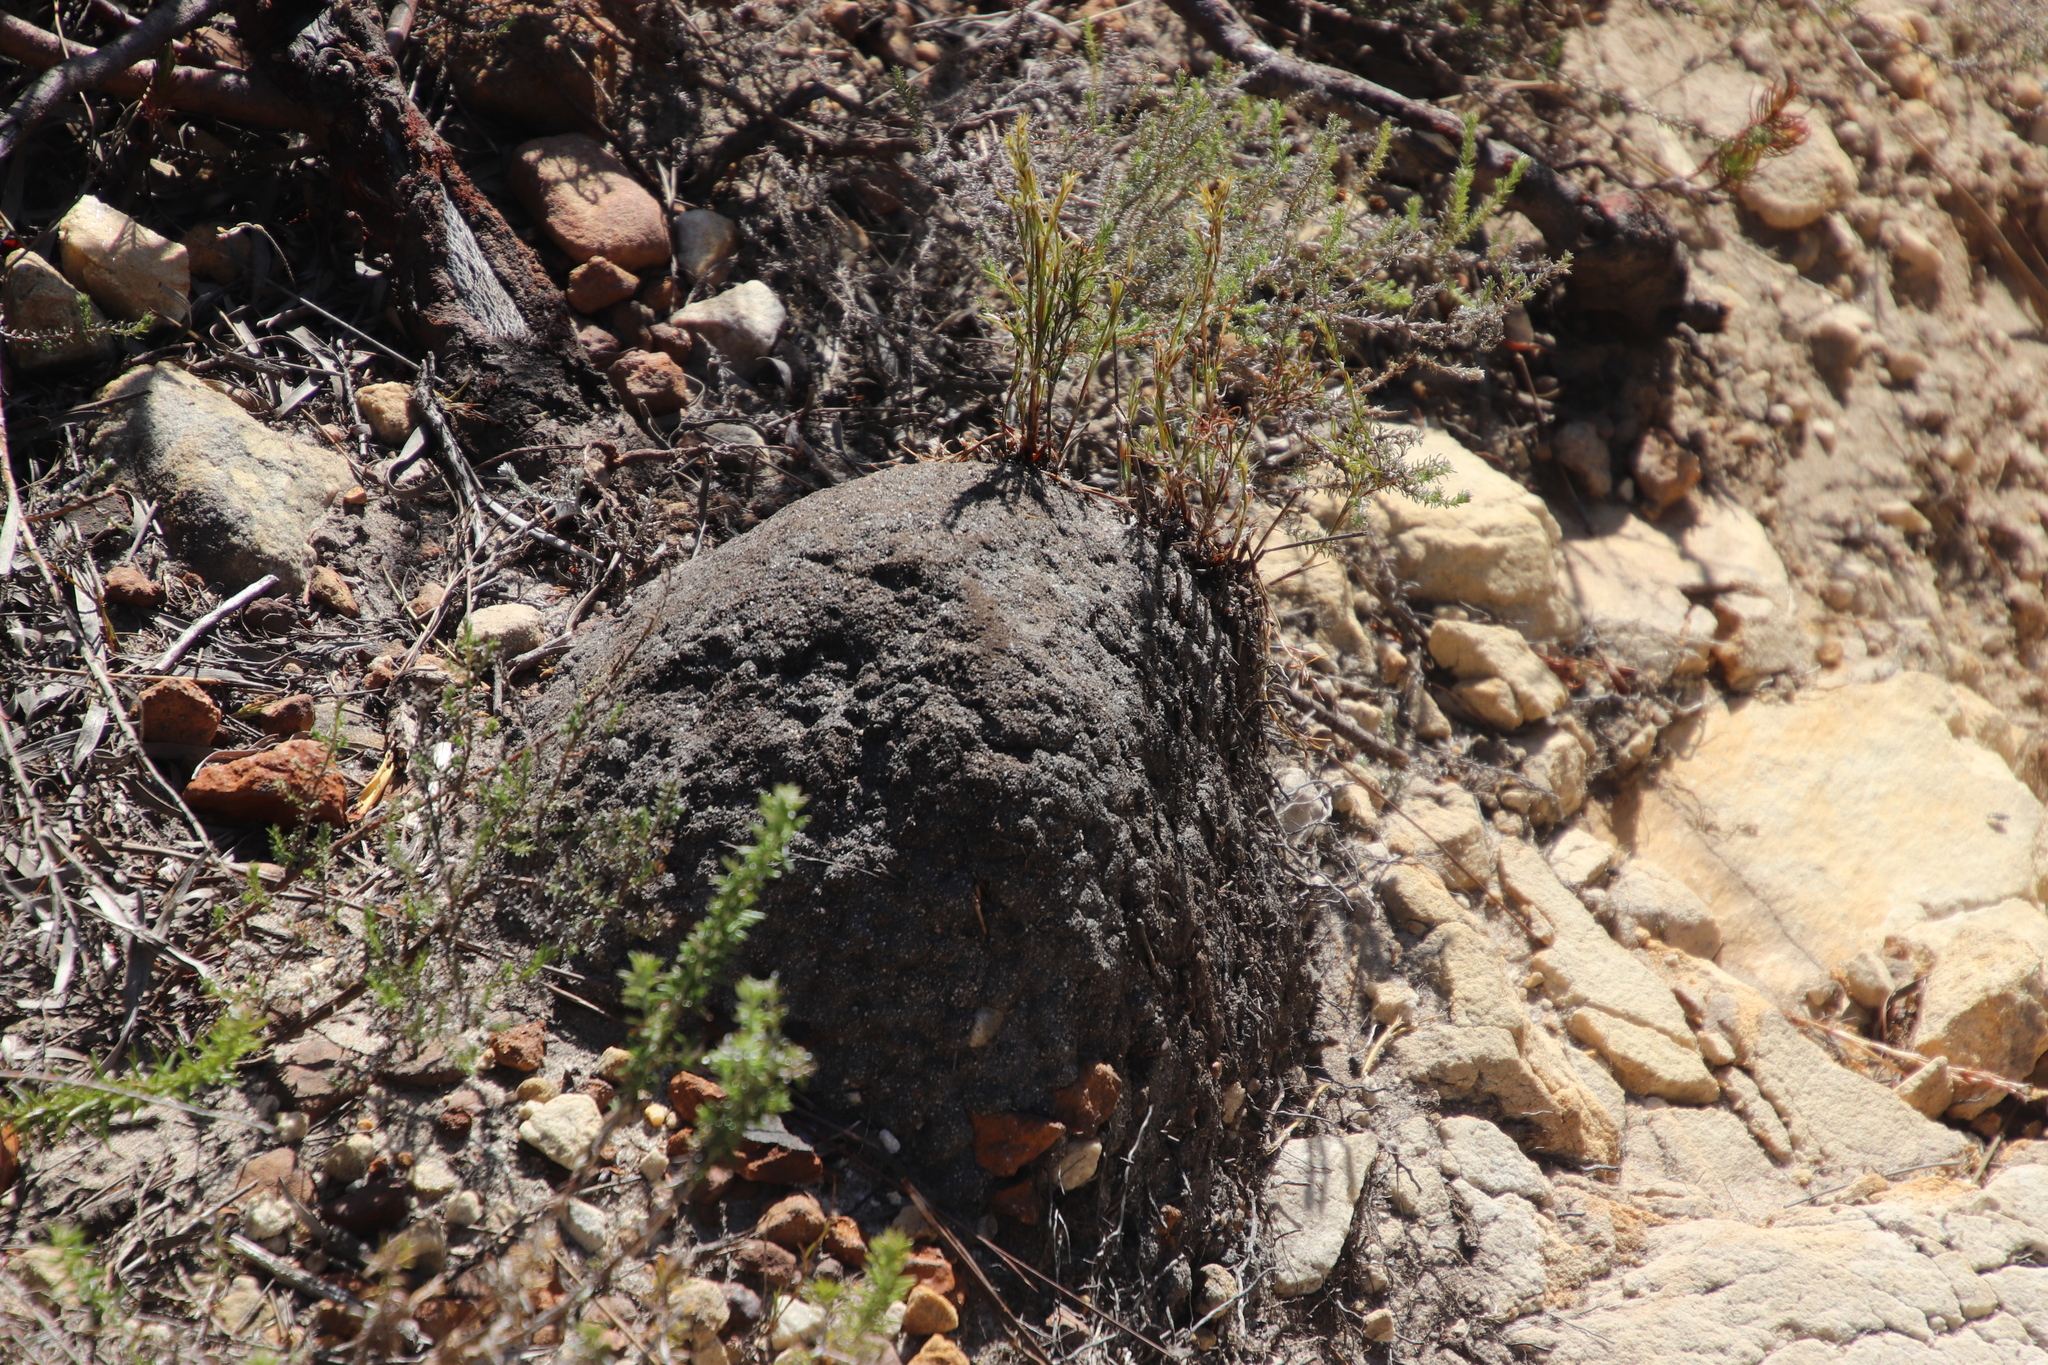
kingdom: Animalia
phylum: Arthropoda
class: Insecta
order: Blattodea
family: Termitidae
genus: Amitermes
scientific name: Amitermes hastatus
